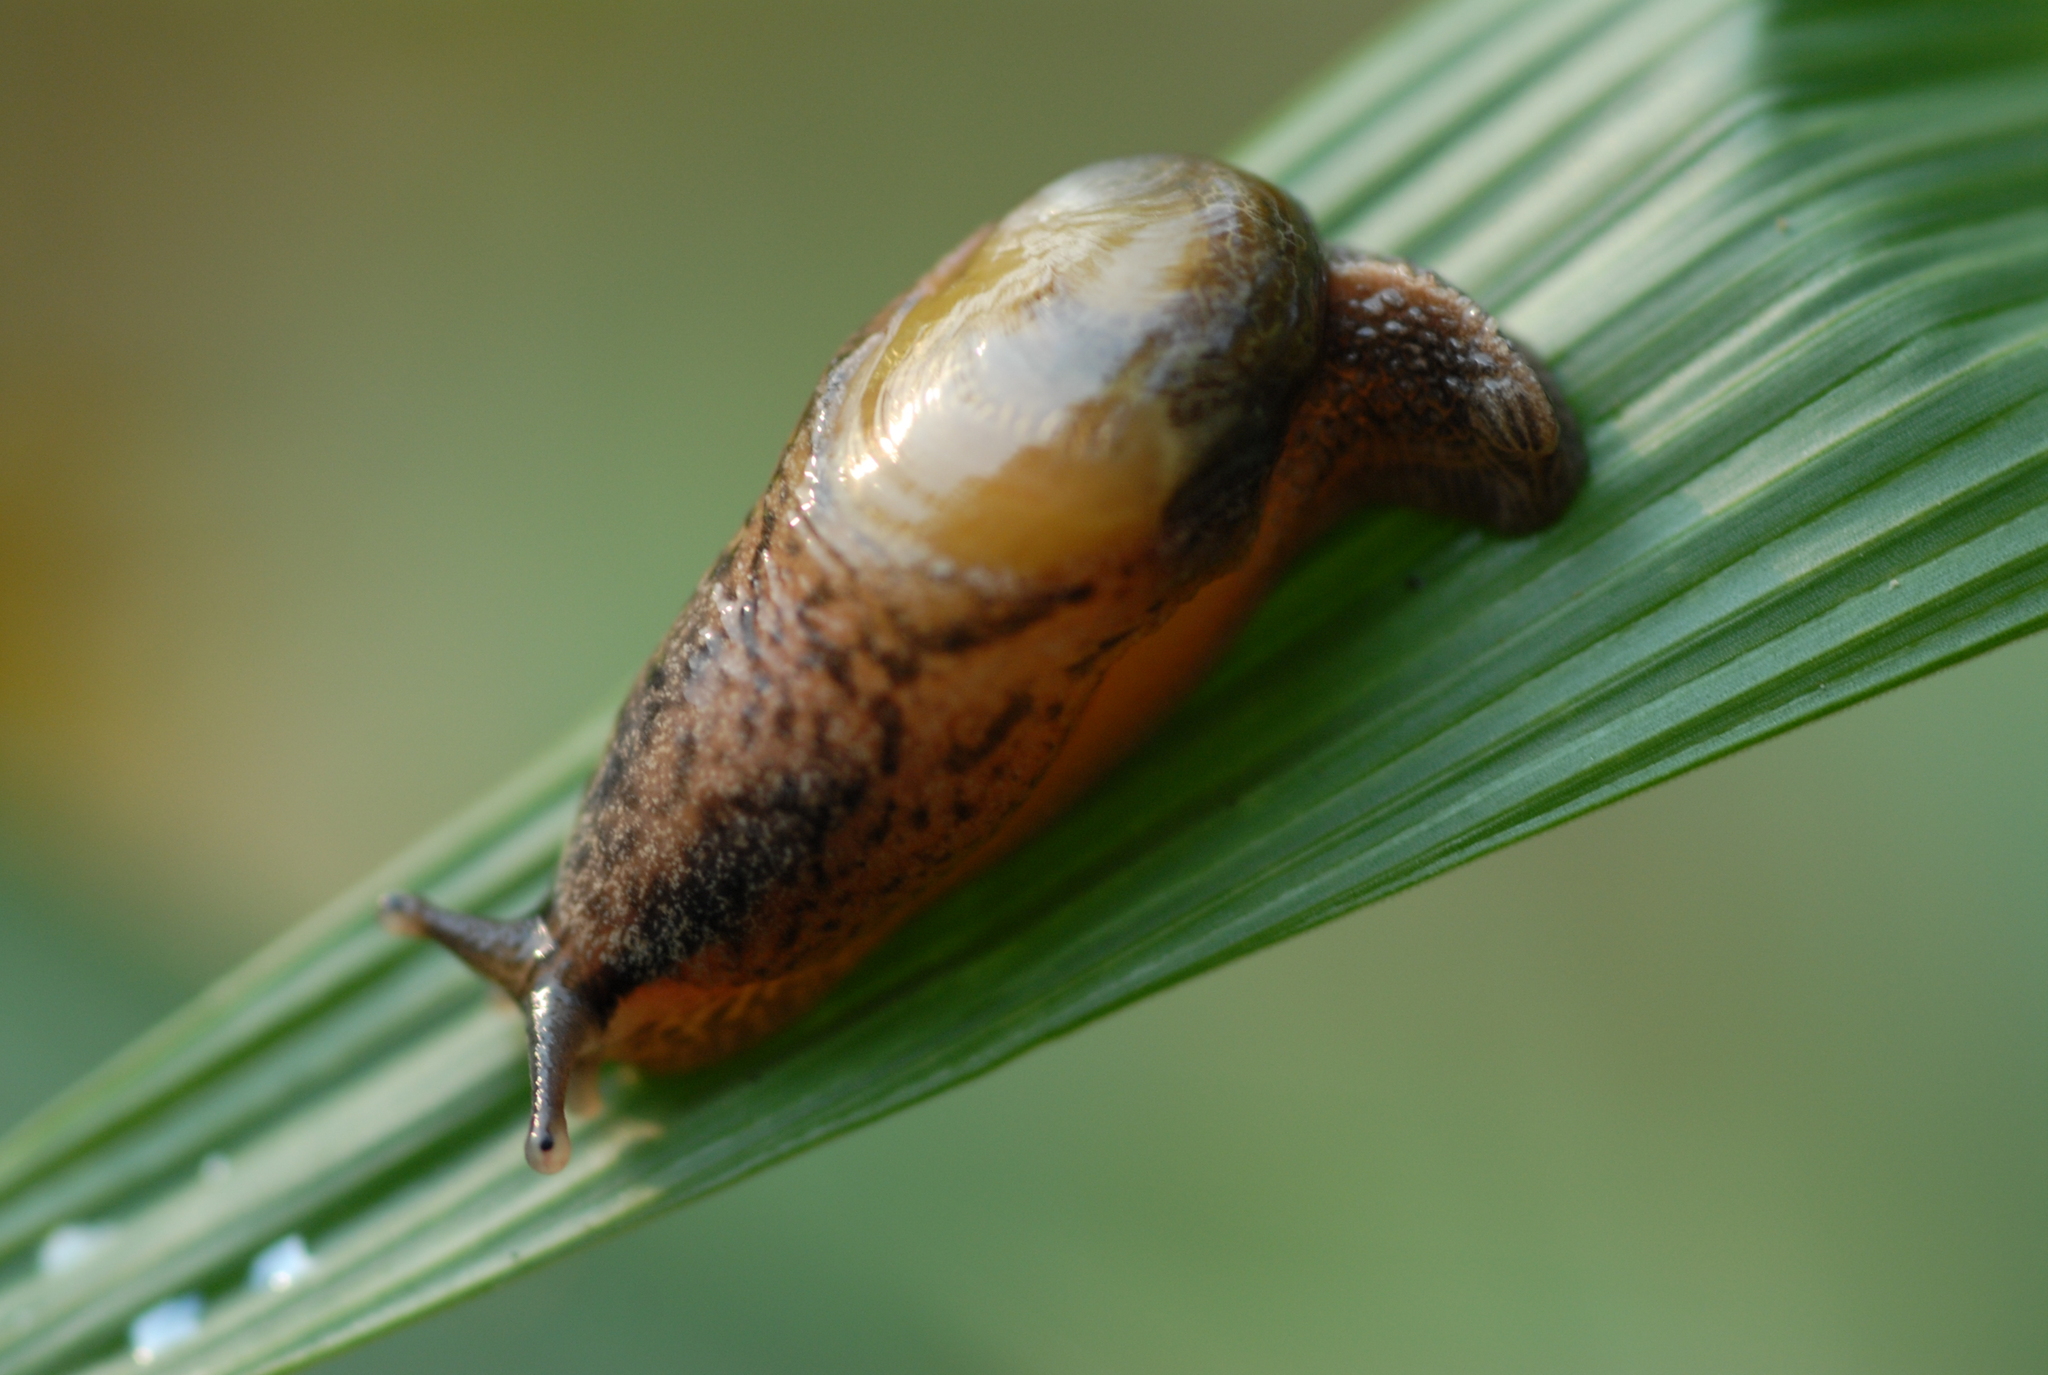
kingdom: Animalia
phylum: Mollusca
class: Gastropoda
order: Stylommatophora
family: Ariophantidae
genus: Parmarion
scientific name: Parmarion martensi
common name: Semi-slug
